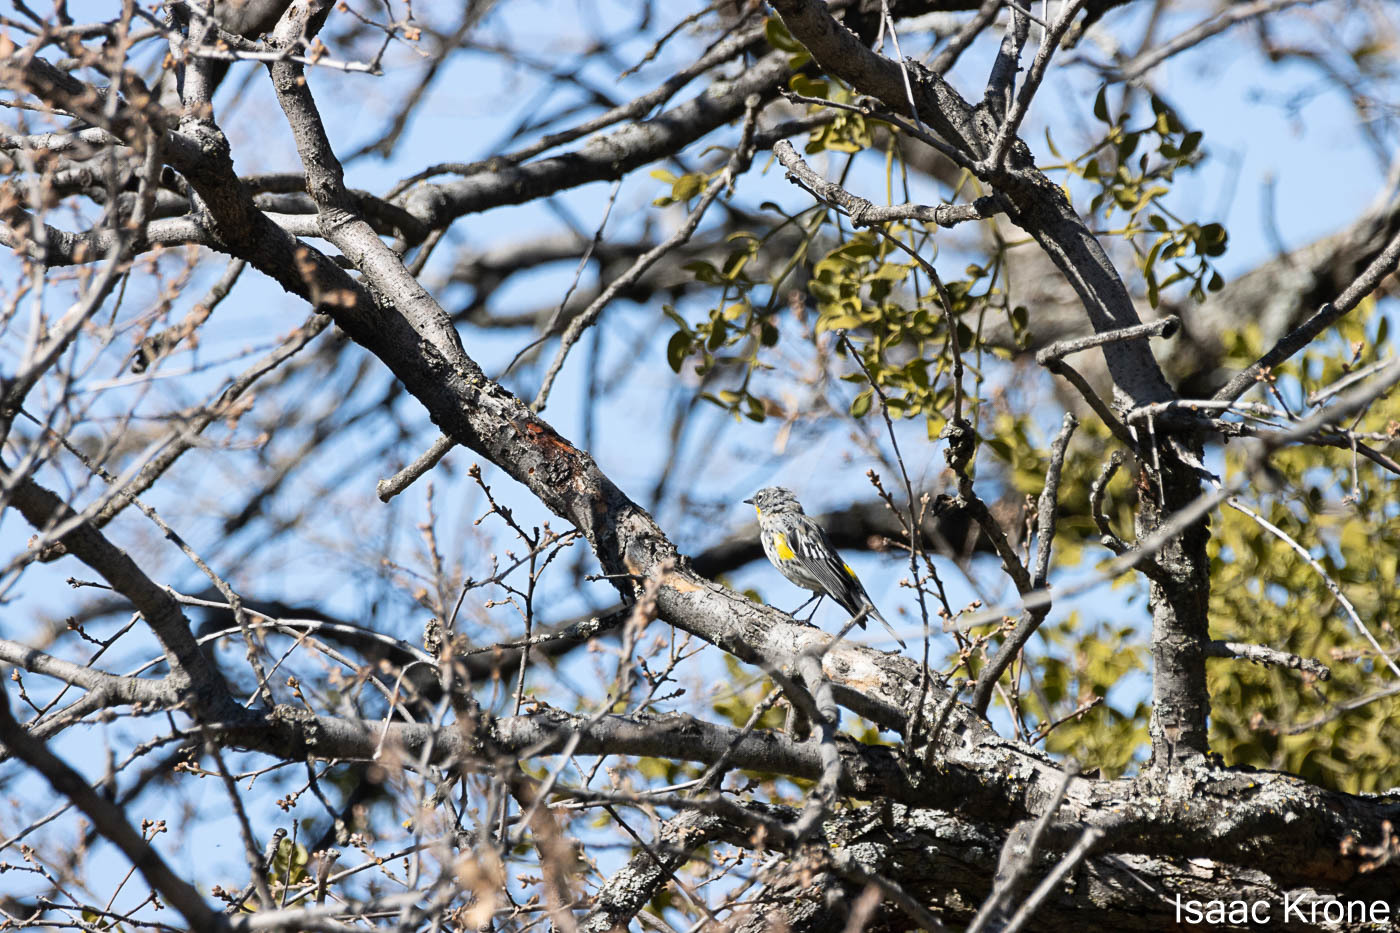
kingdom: Animalia
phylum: Chordata
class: Aves
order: Passeriformes
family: Parulidae
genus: Setophaga
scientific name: Setophaga coronata
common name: Myrtle warbler
